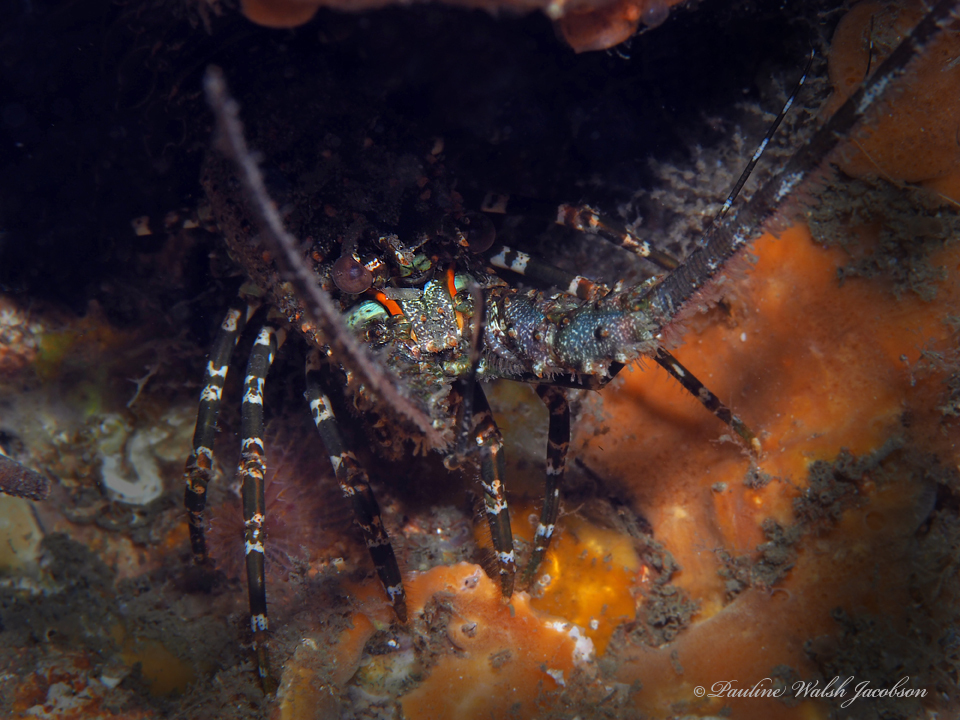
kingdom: Animalia
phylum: Arthropoda
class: Malacostraca
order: Decapoda
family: Palinuridae
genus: Panulirus
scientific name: Panulirus argus
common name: Caribbean spiny lobster
